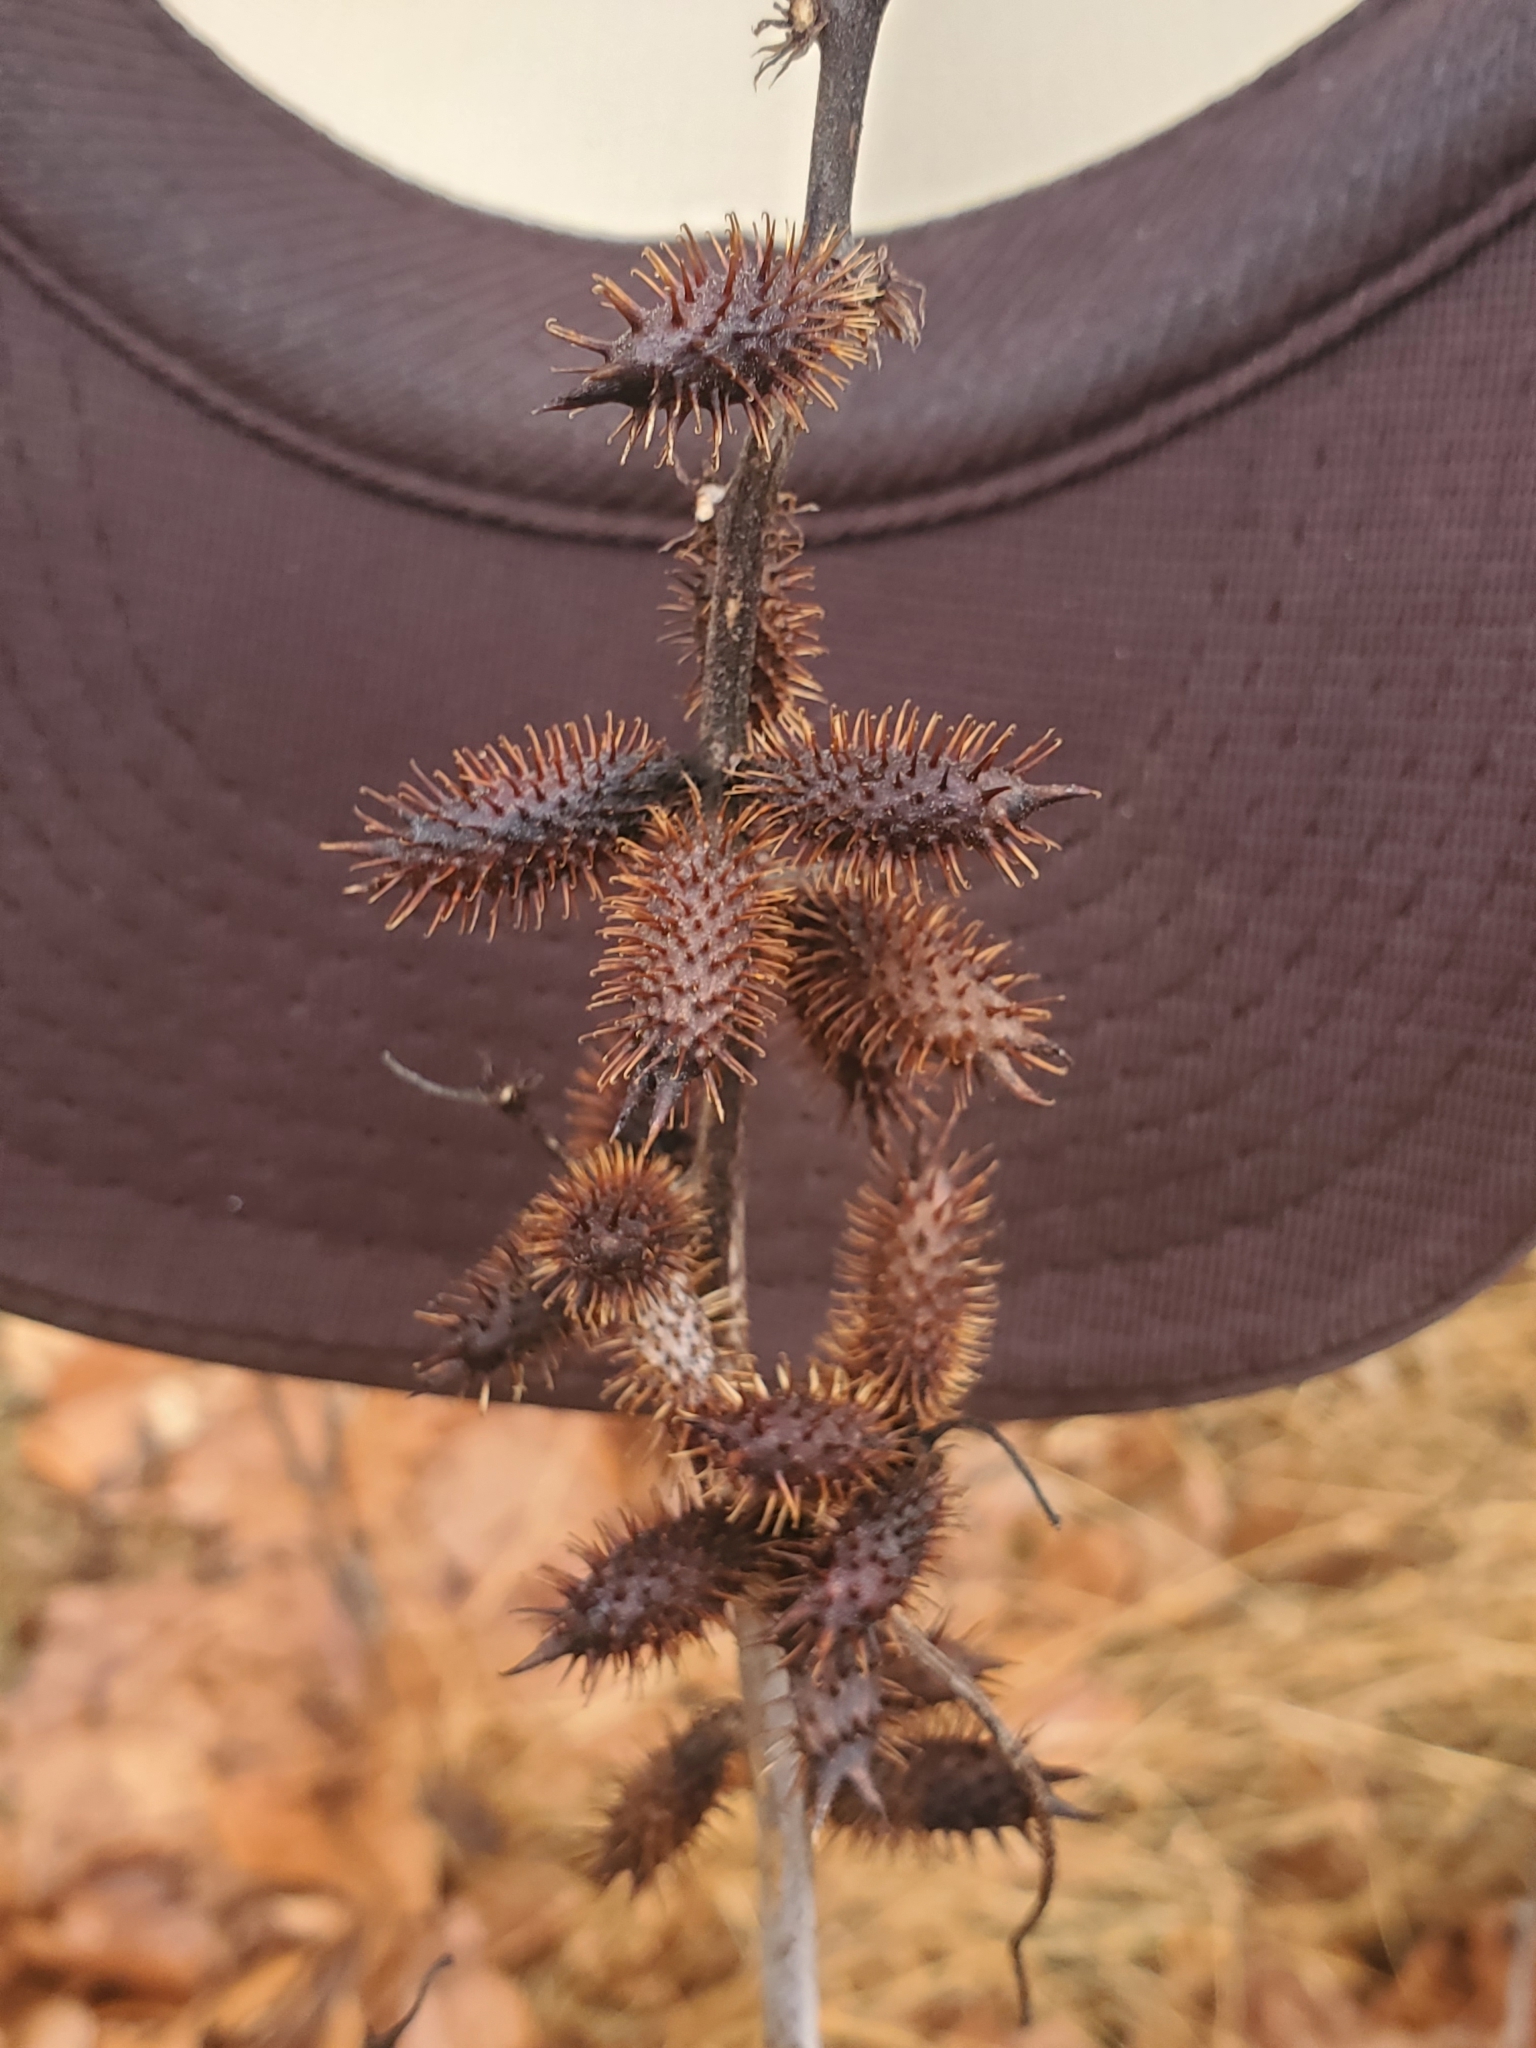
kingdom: Plantae
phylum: Tracheophyta
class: Magnoliopsida
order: Asterales
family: Asteraceae
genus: Xanthium
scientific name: Xanthium strumarium
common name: Rough cocklebur
